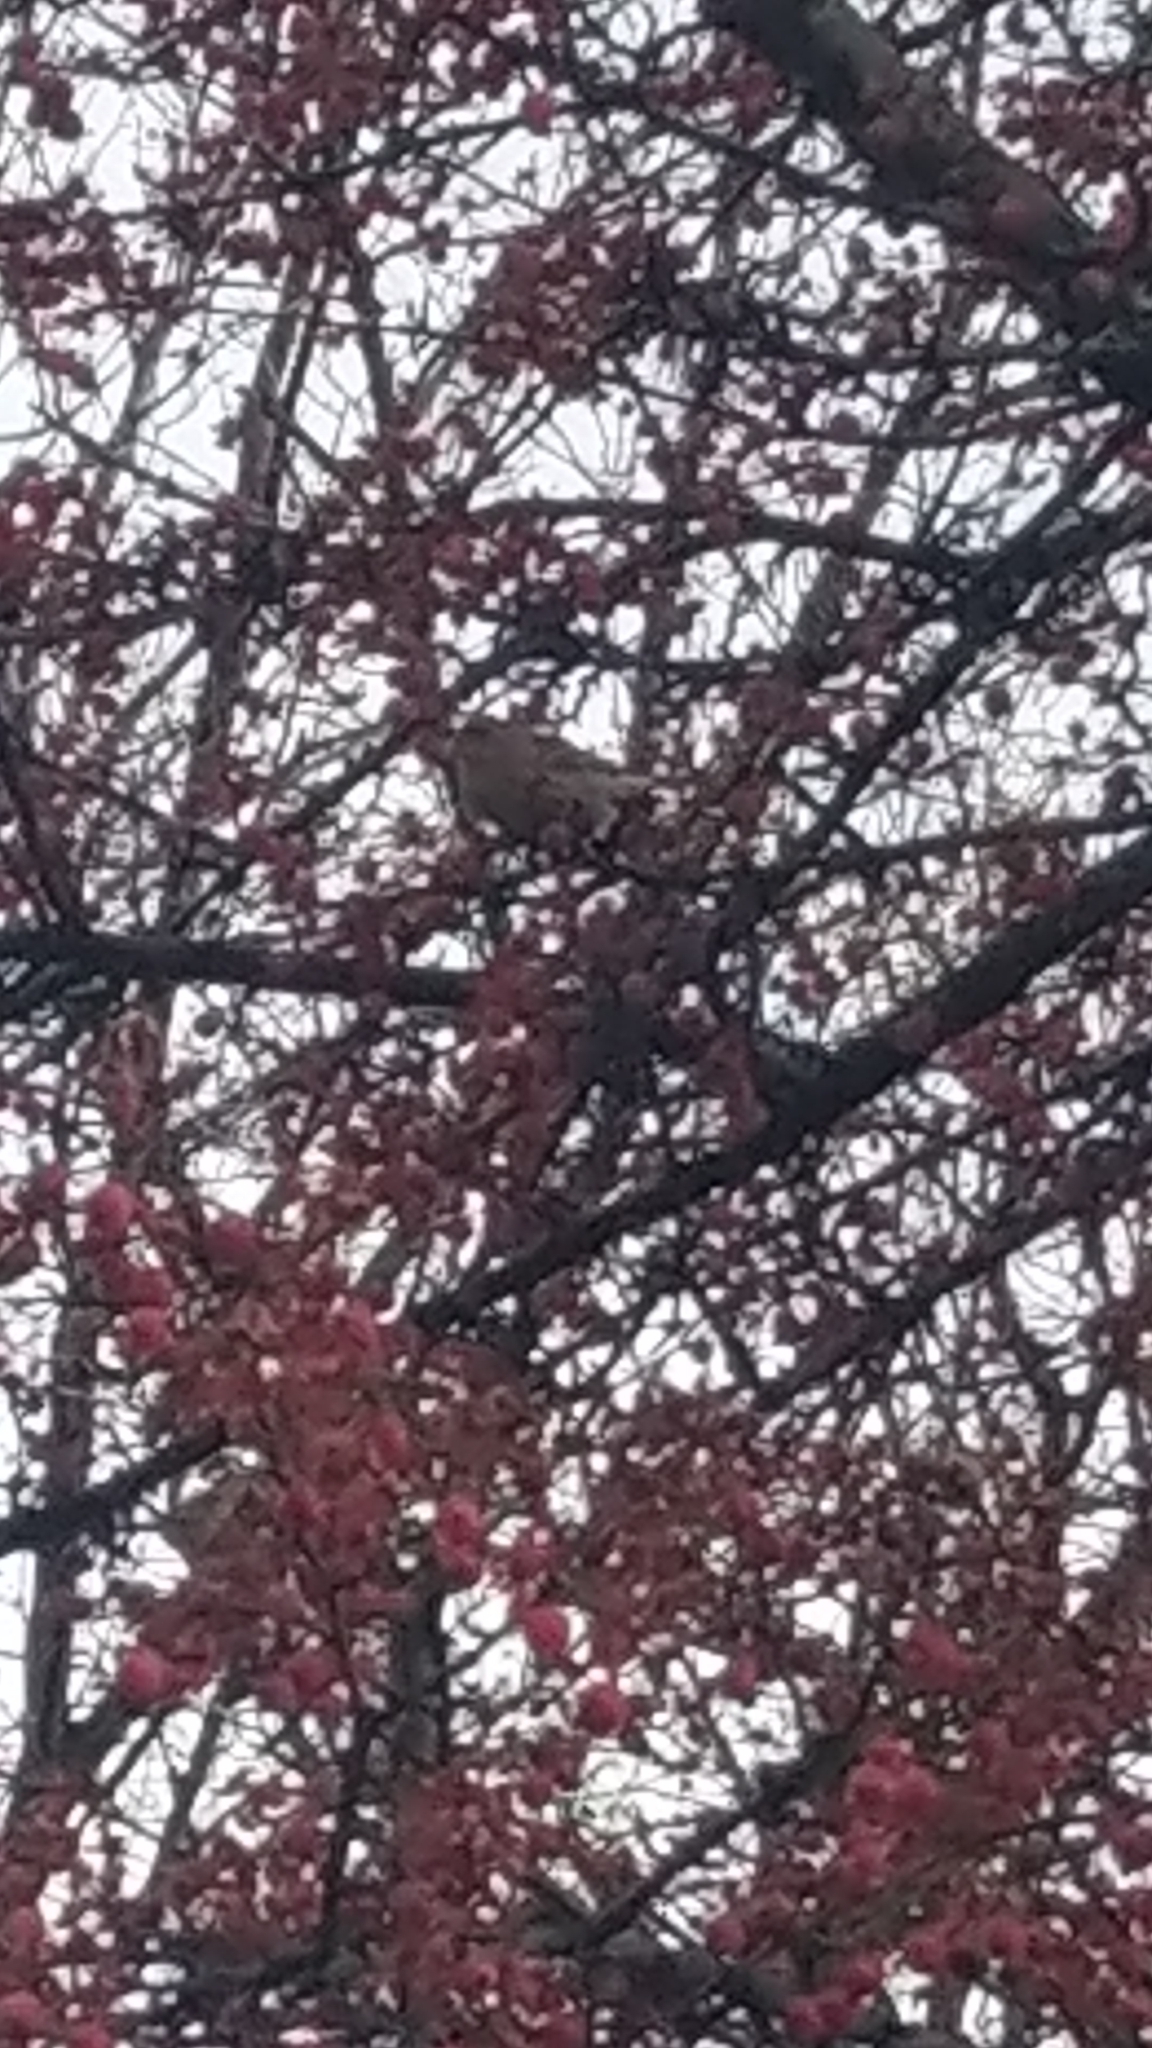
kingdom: Animalia
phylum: Chordata
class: Aves
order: Passeriformes
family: Fringillidae
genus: Haemorhous
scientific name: Haemorhous mexicanus
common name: House finch
